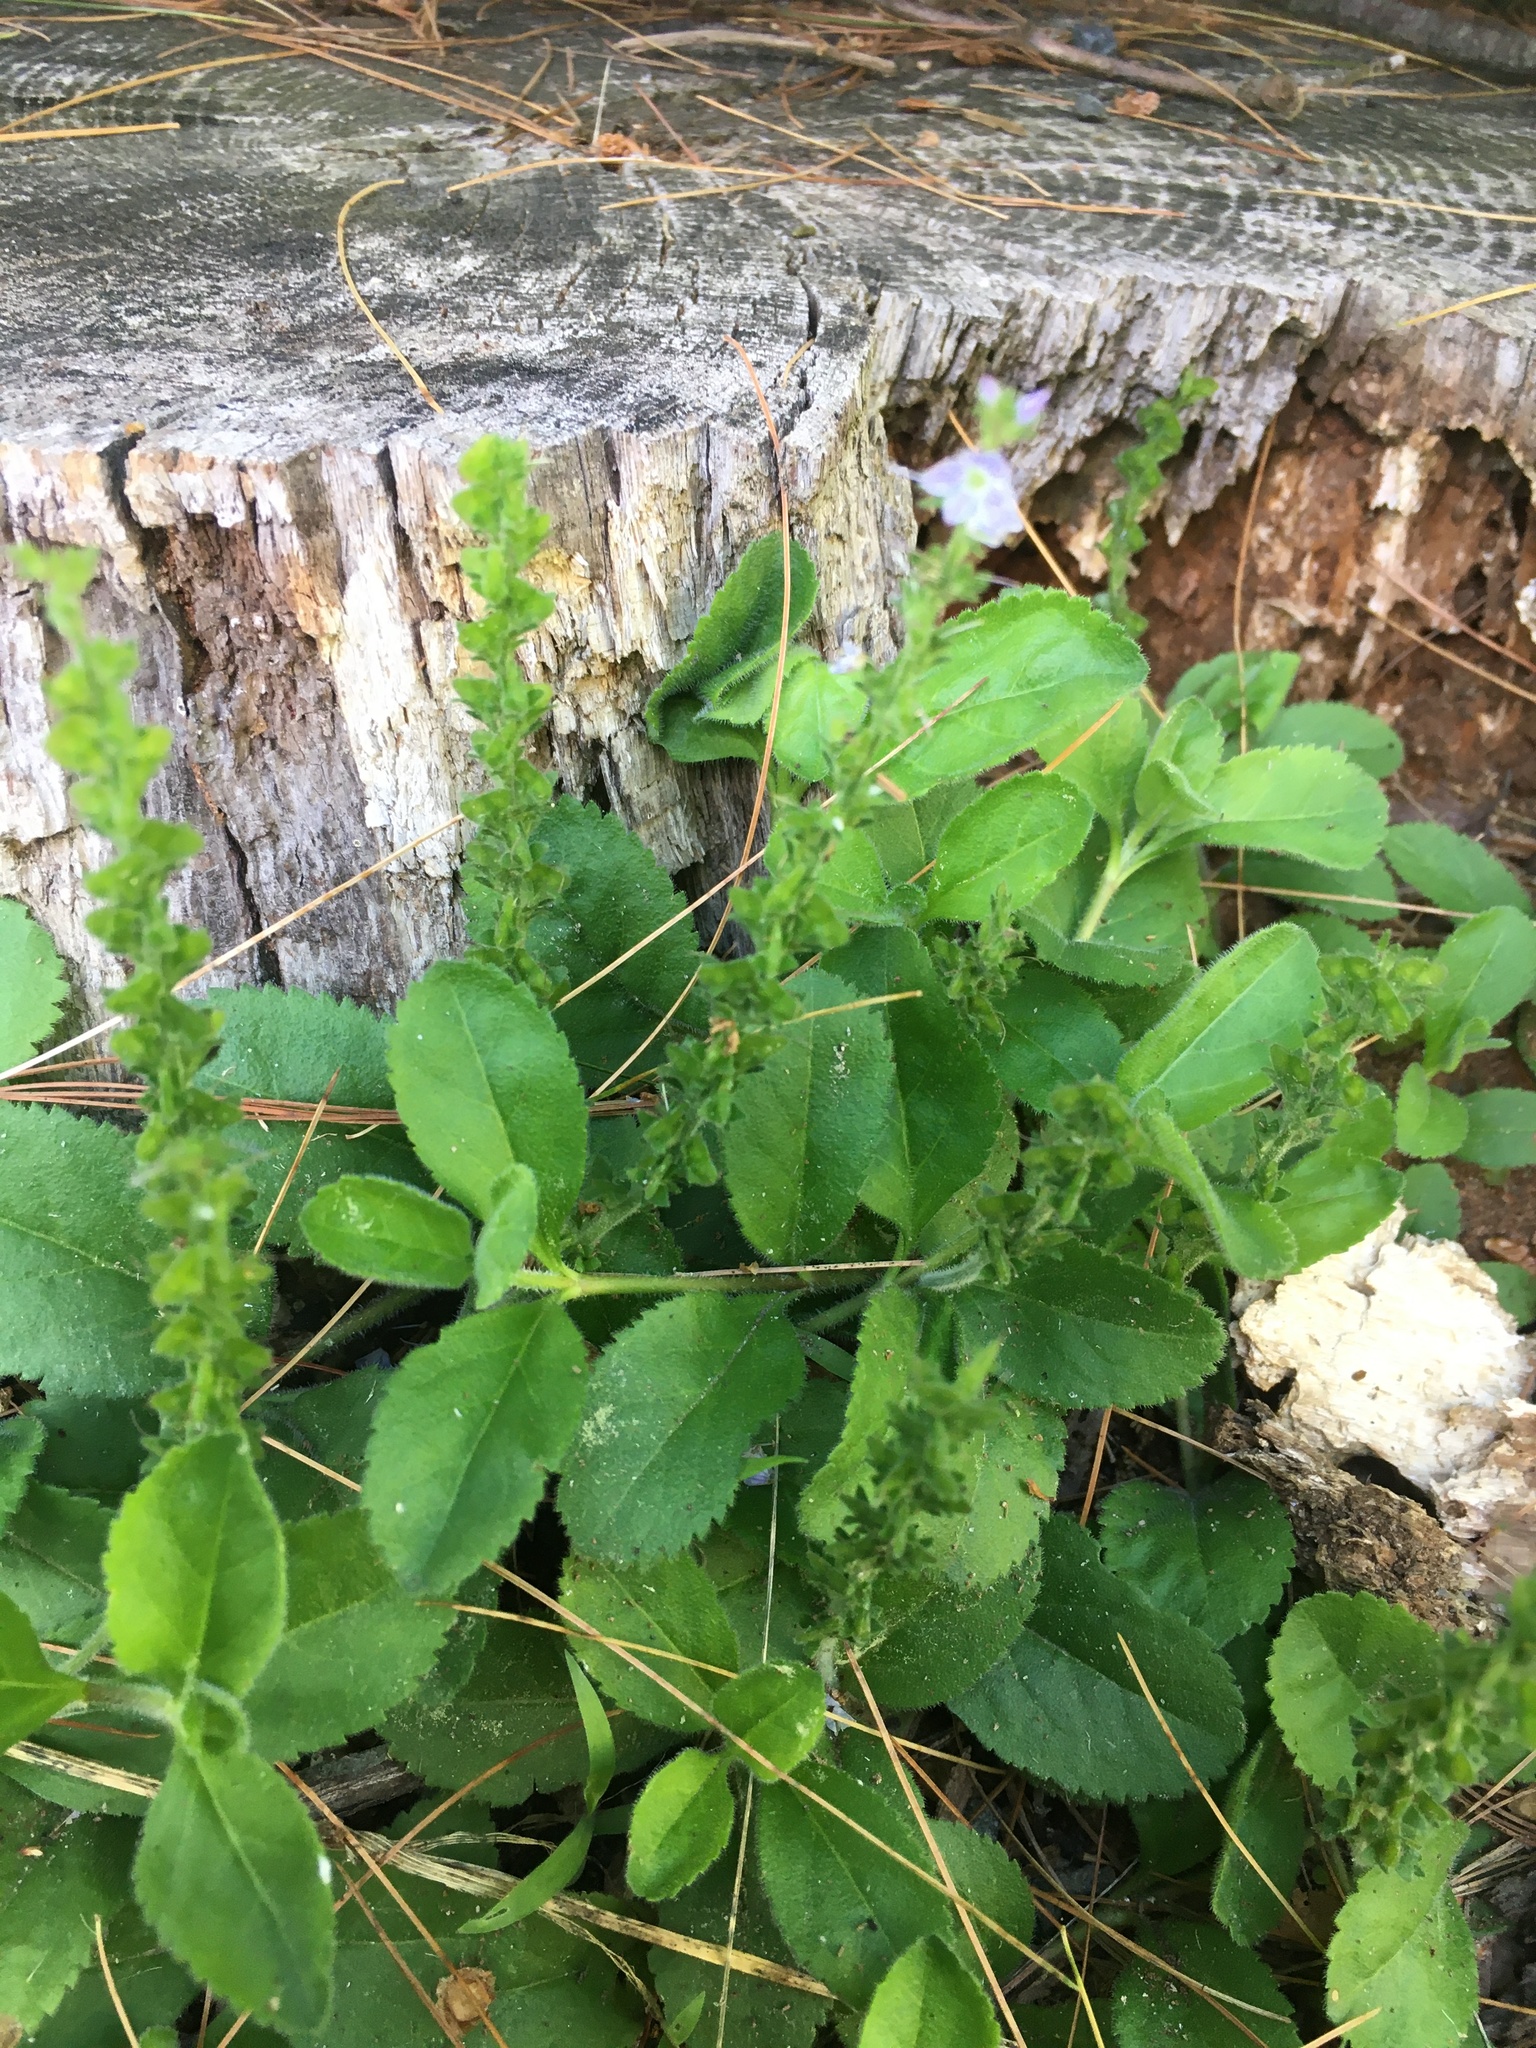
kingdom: Plantae
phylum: Tracheophyta
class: Magnoliopsida
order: Lamiales
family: Plantaginaceae
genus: Veronica
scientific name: Veronica officinalis
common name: Common speedwell
